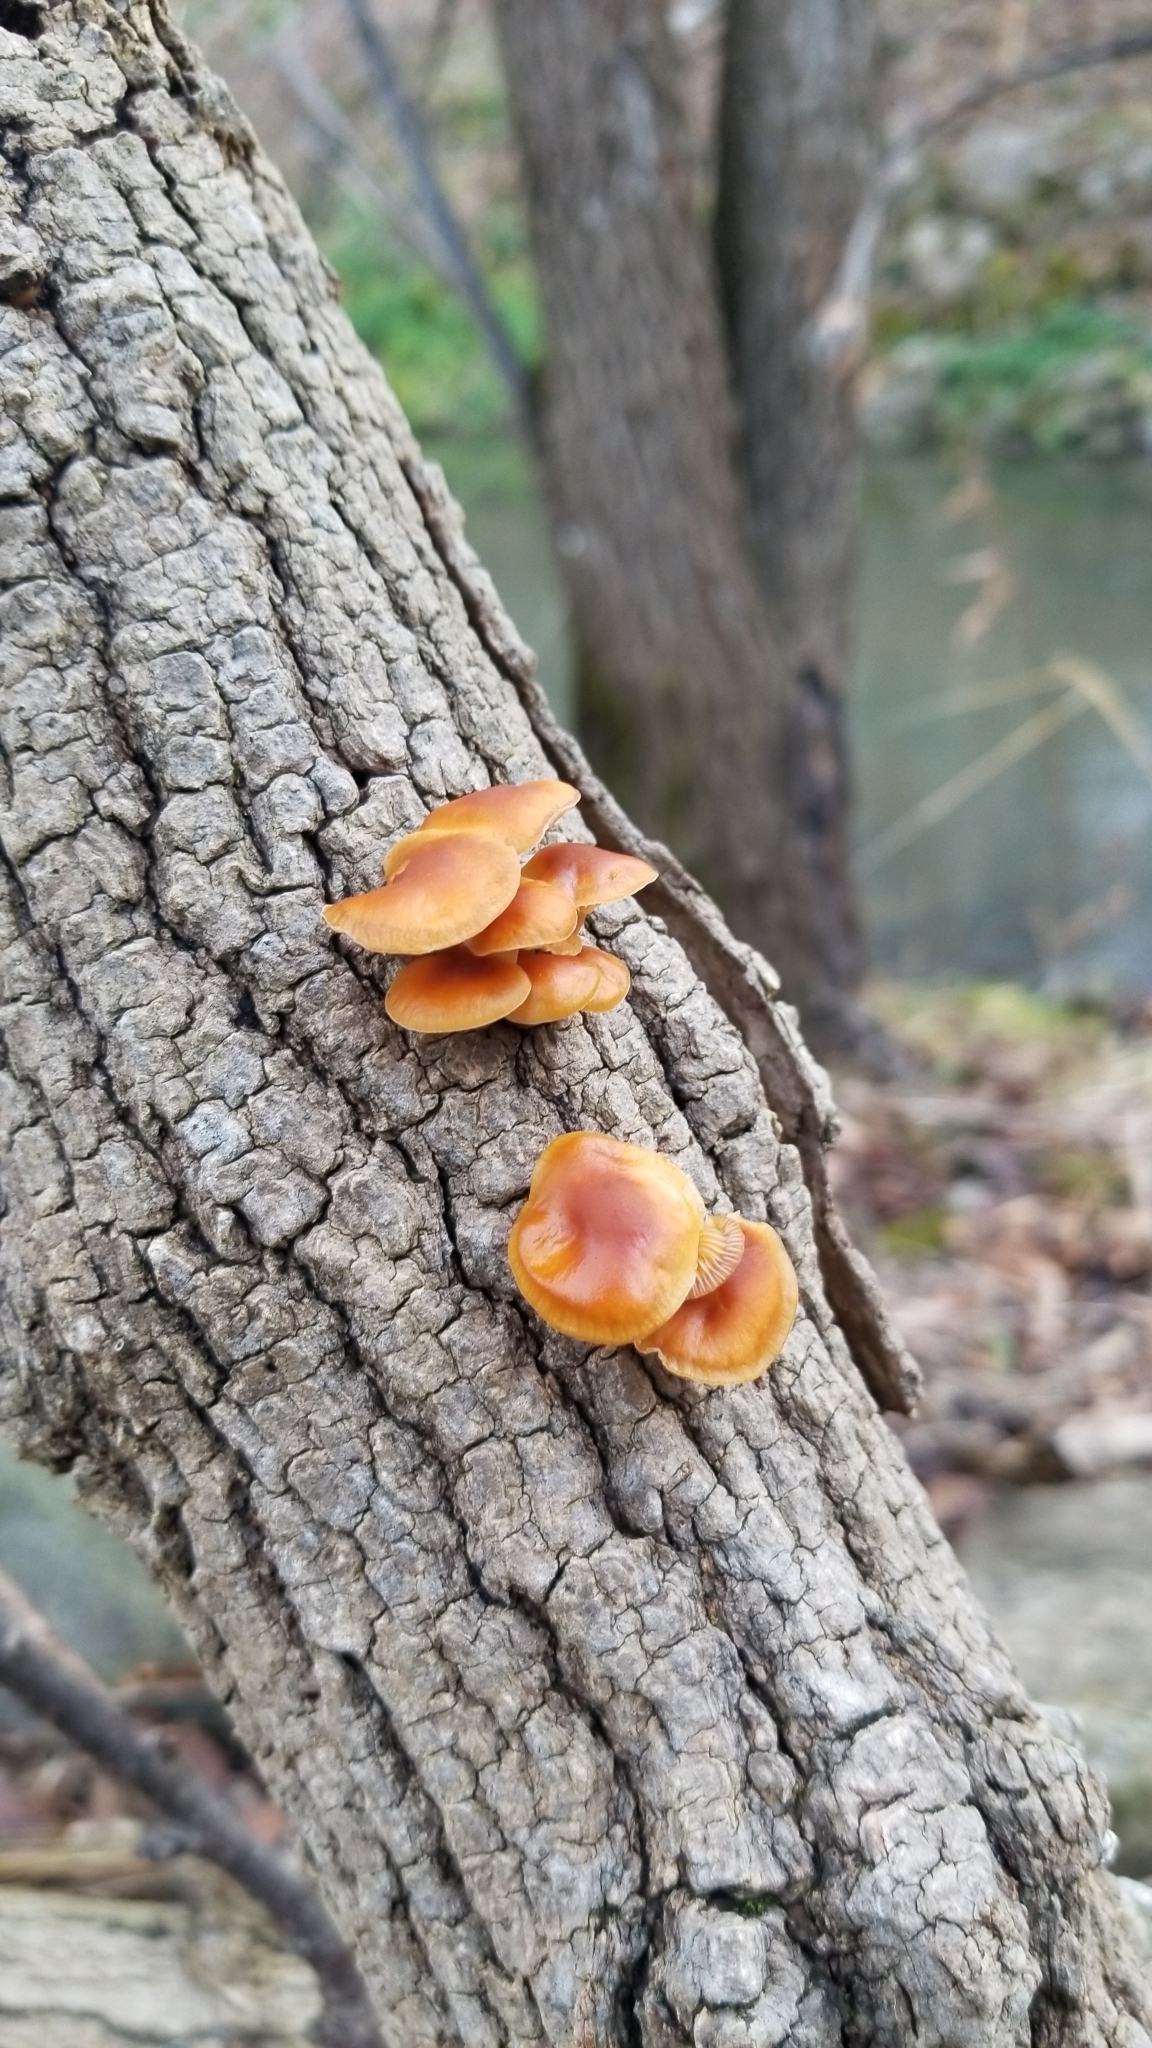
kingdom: Fungi
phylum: Basidiomycota
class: Agaricomycetes
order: Agaricales
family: Physalacriaceae
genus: Flammulina
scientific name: Flammulina velutipes
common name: Velvet shank
